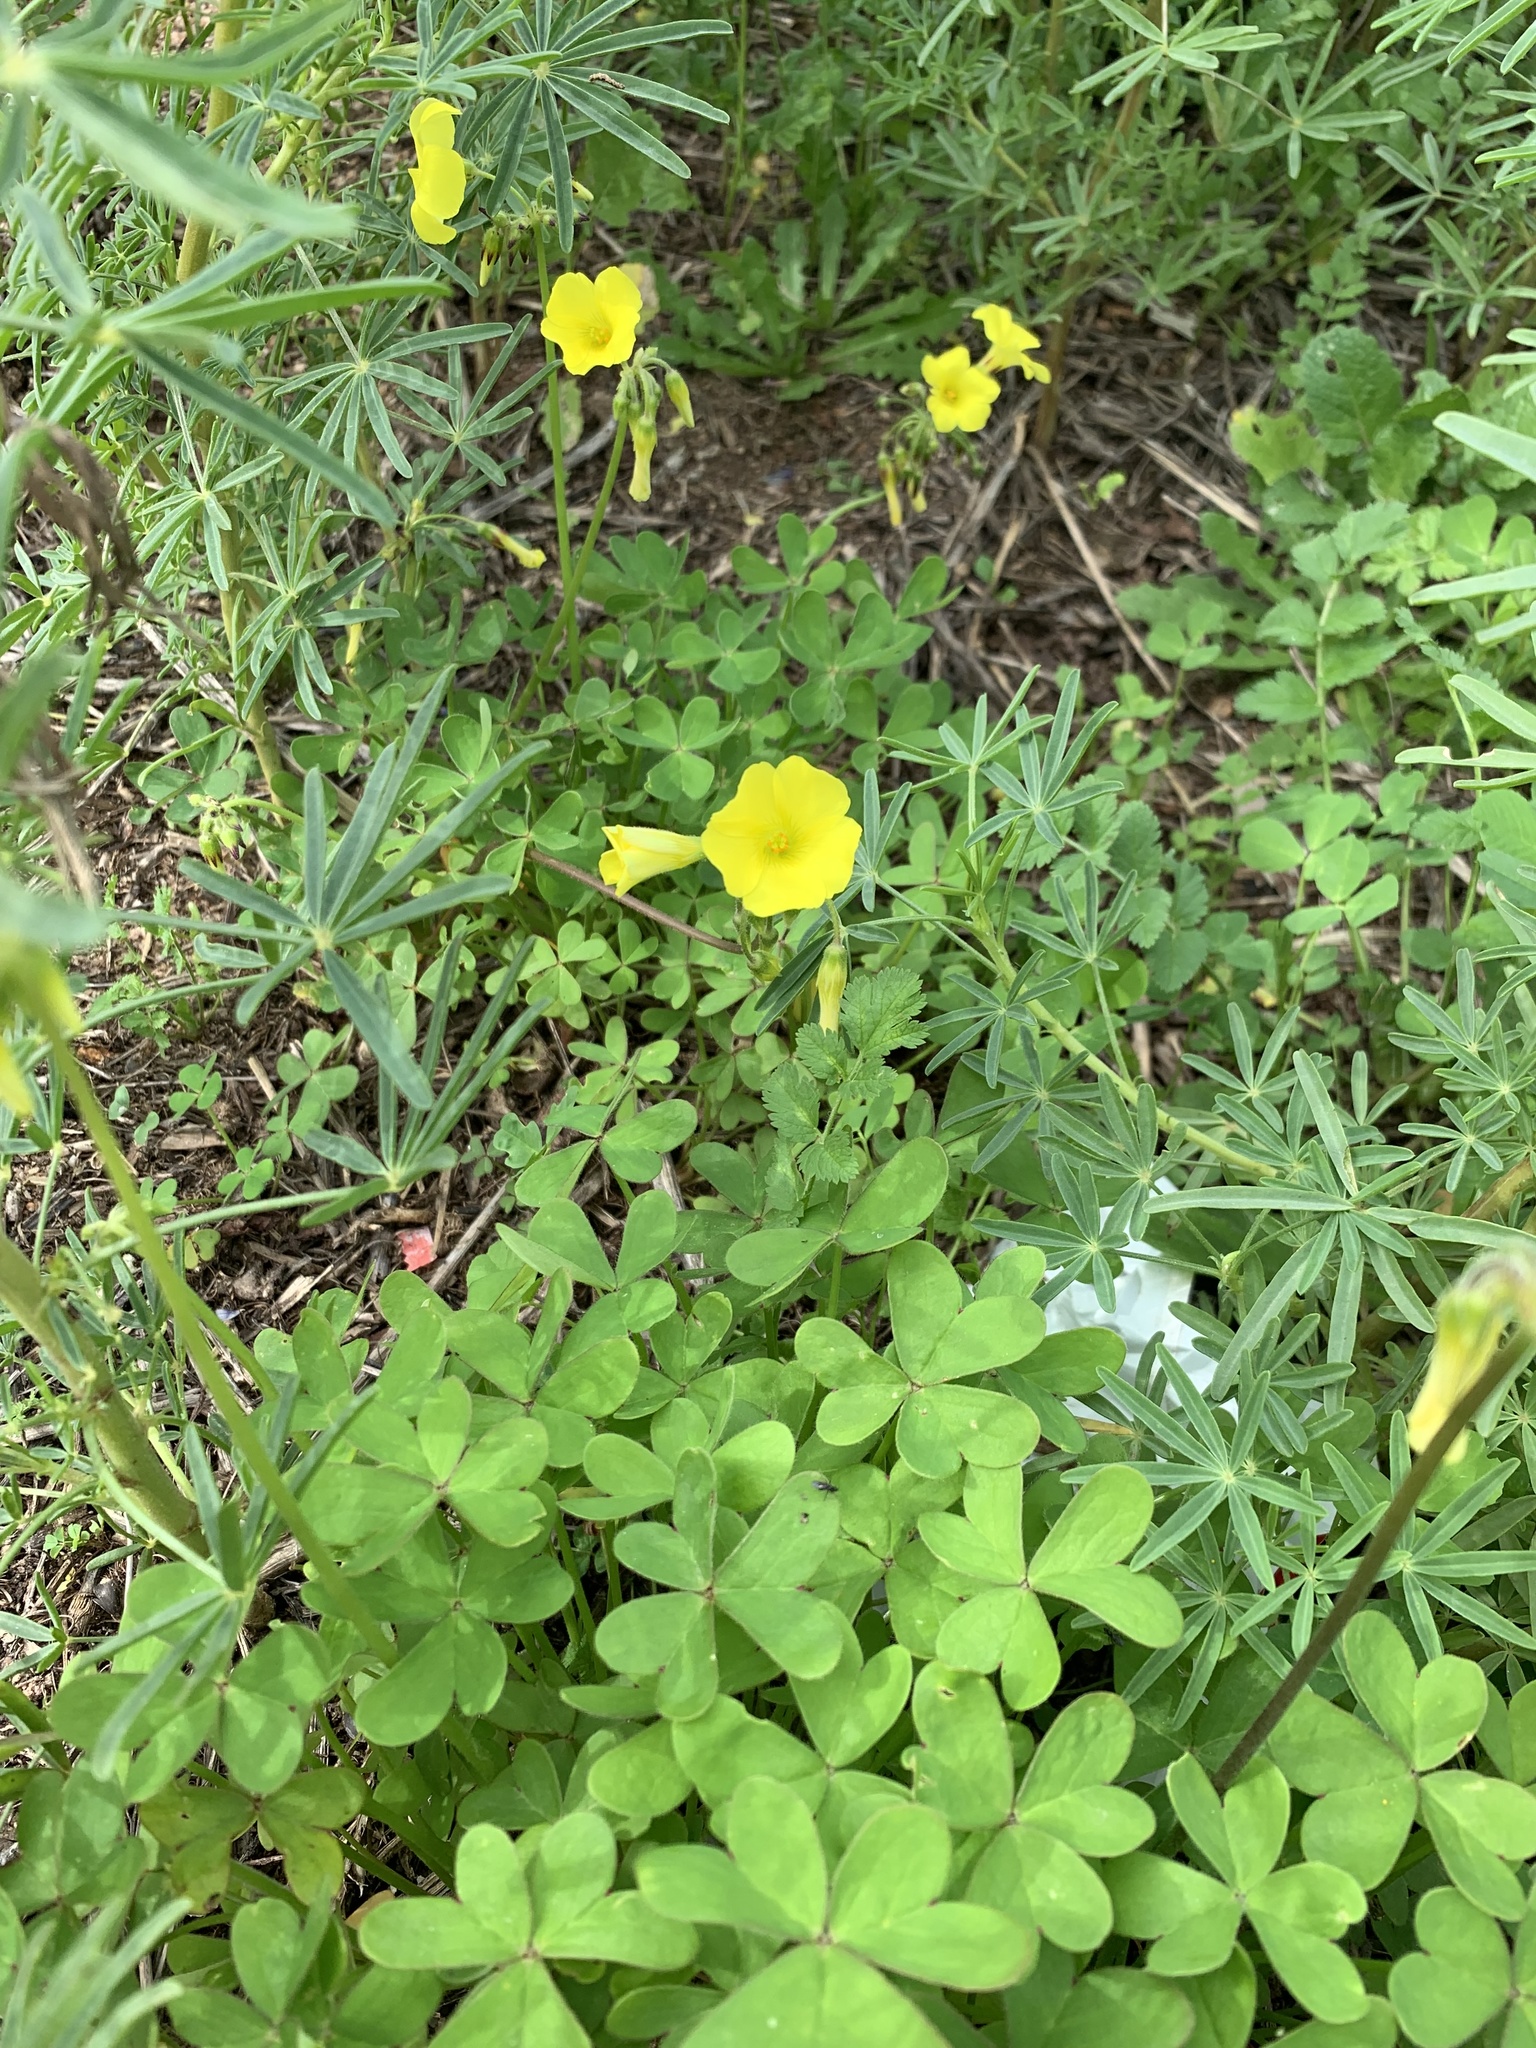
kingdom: Plantae
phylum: Tracheophyta
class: Magnoliopsida
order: Oxalidales
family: Oxalidaceae
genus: Oxalis
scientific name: Oxalis pes-caprae
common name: Bermuda-buttercup
